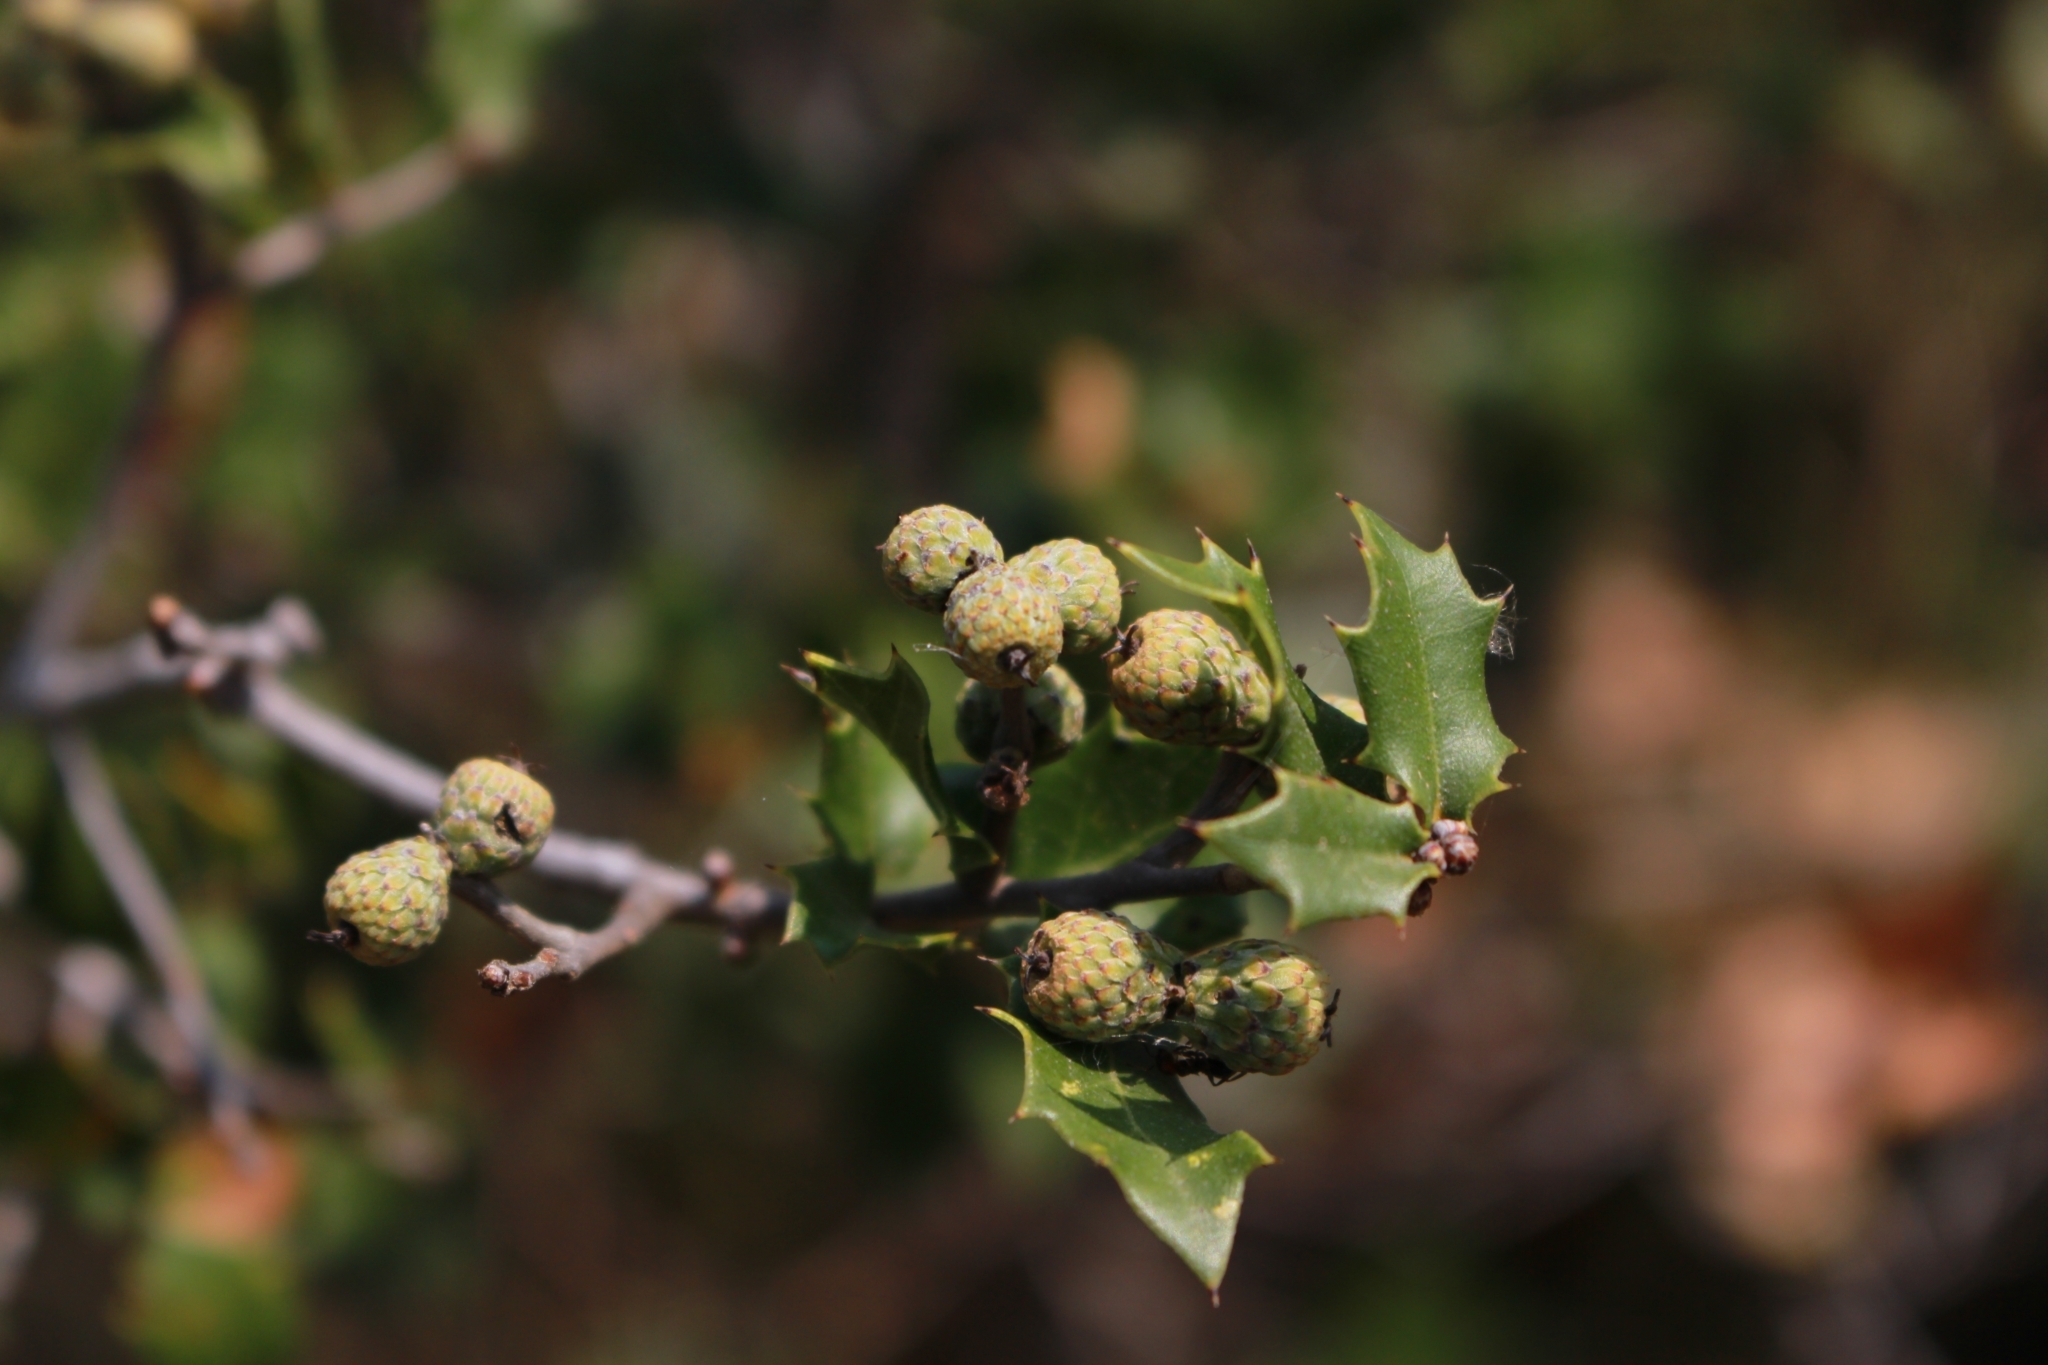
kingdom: Plantae
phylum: Tracheophyta
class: Magnoliopsida
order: Fagales
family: Fagaceae
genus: Quercus
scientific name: Quercus coccifera
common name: Kermes oak
